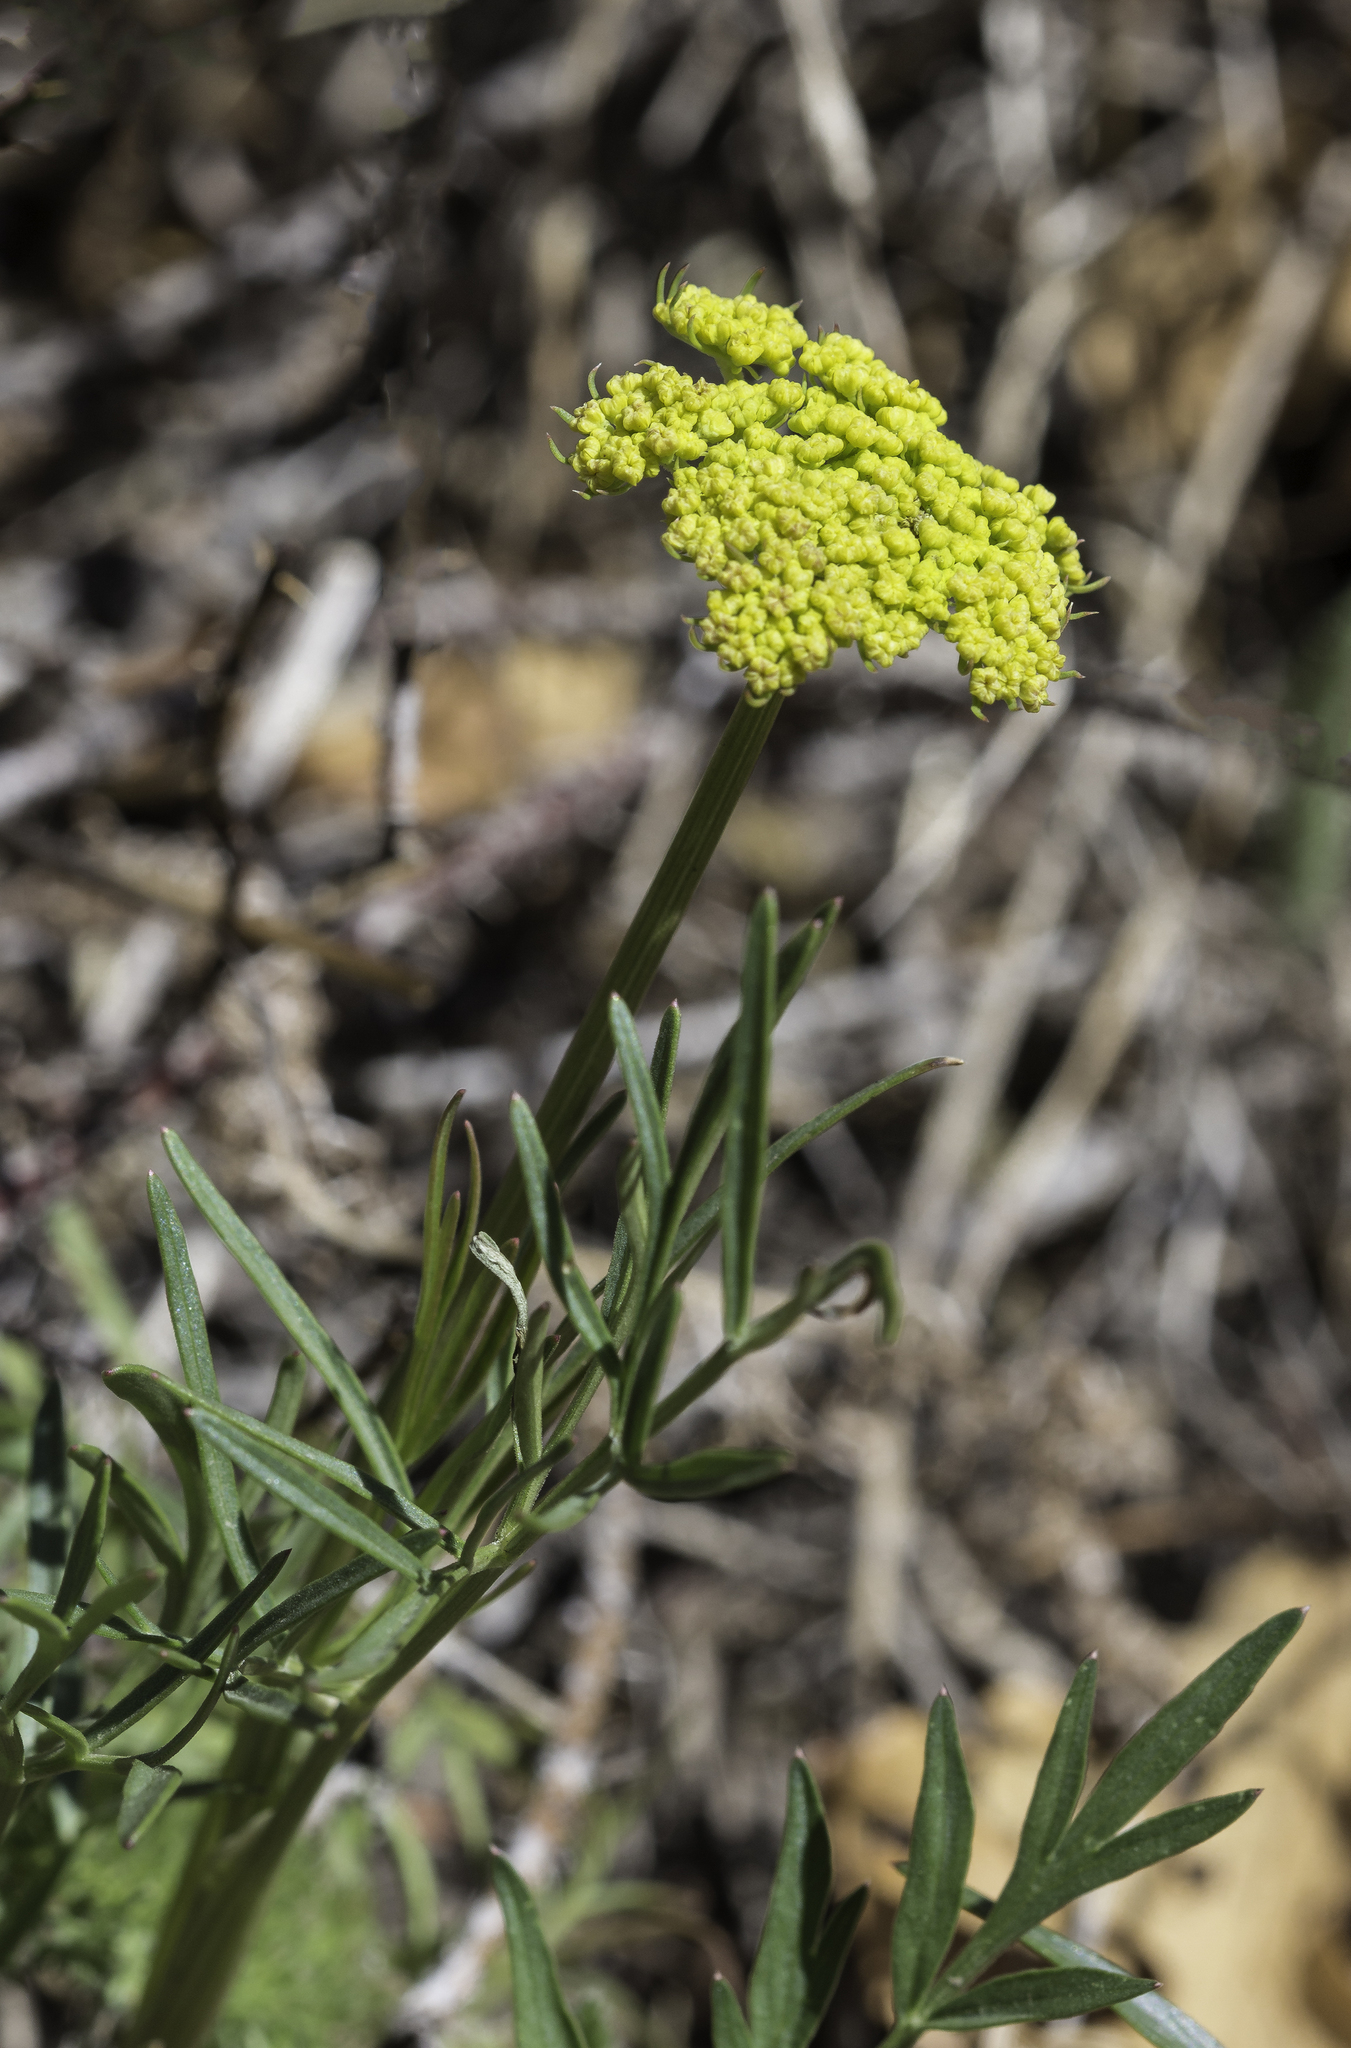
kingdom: Plantae
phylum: Tracheophyta
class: Magnoliopsida
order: Apiales
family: Apiaceae
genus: Cymopterus
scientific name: Cymopterus lemmonii
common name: Lemmon's spring-parsley
